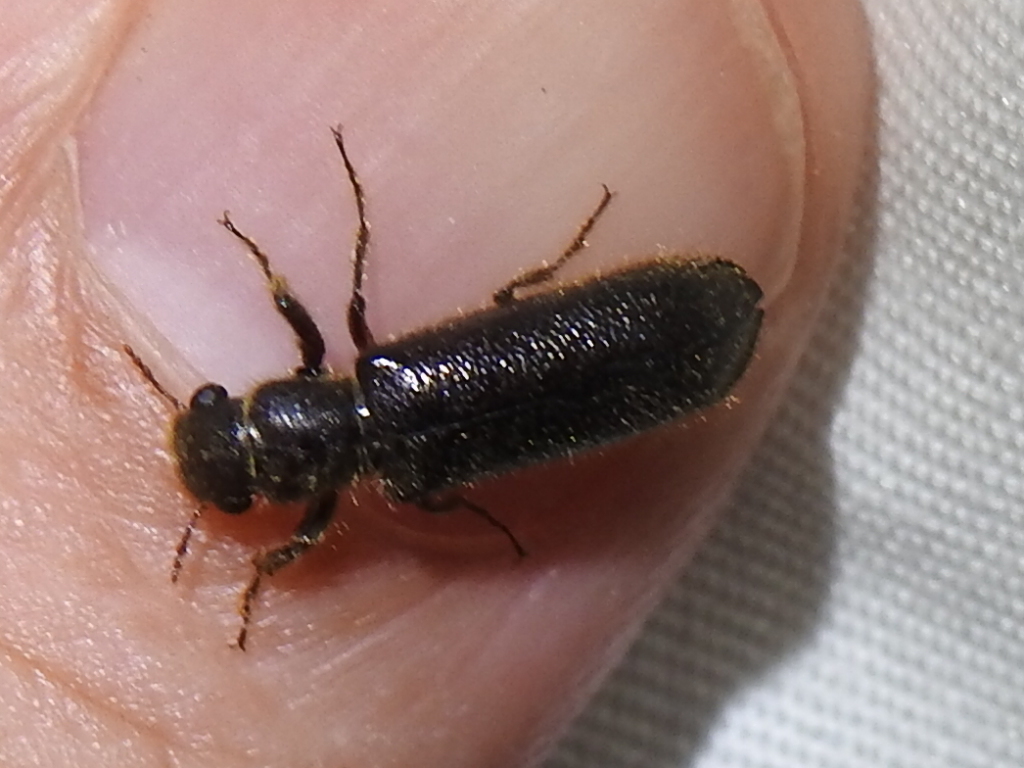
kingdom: Animalia
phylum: Arthropoda
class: Insecta
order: Coleoptera
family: Bostrichidae
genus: Melalgus
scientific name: Melalgus plicatus
